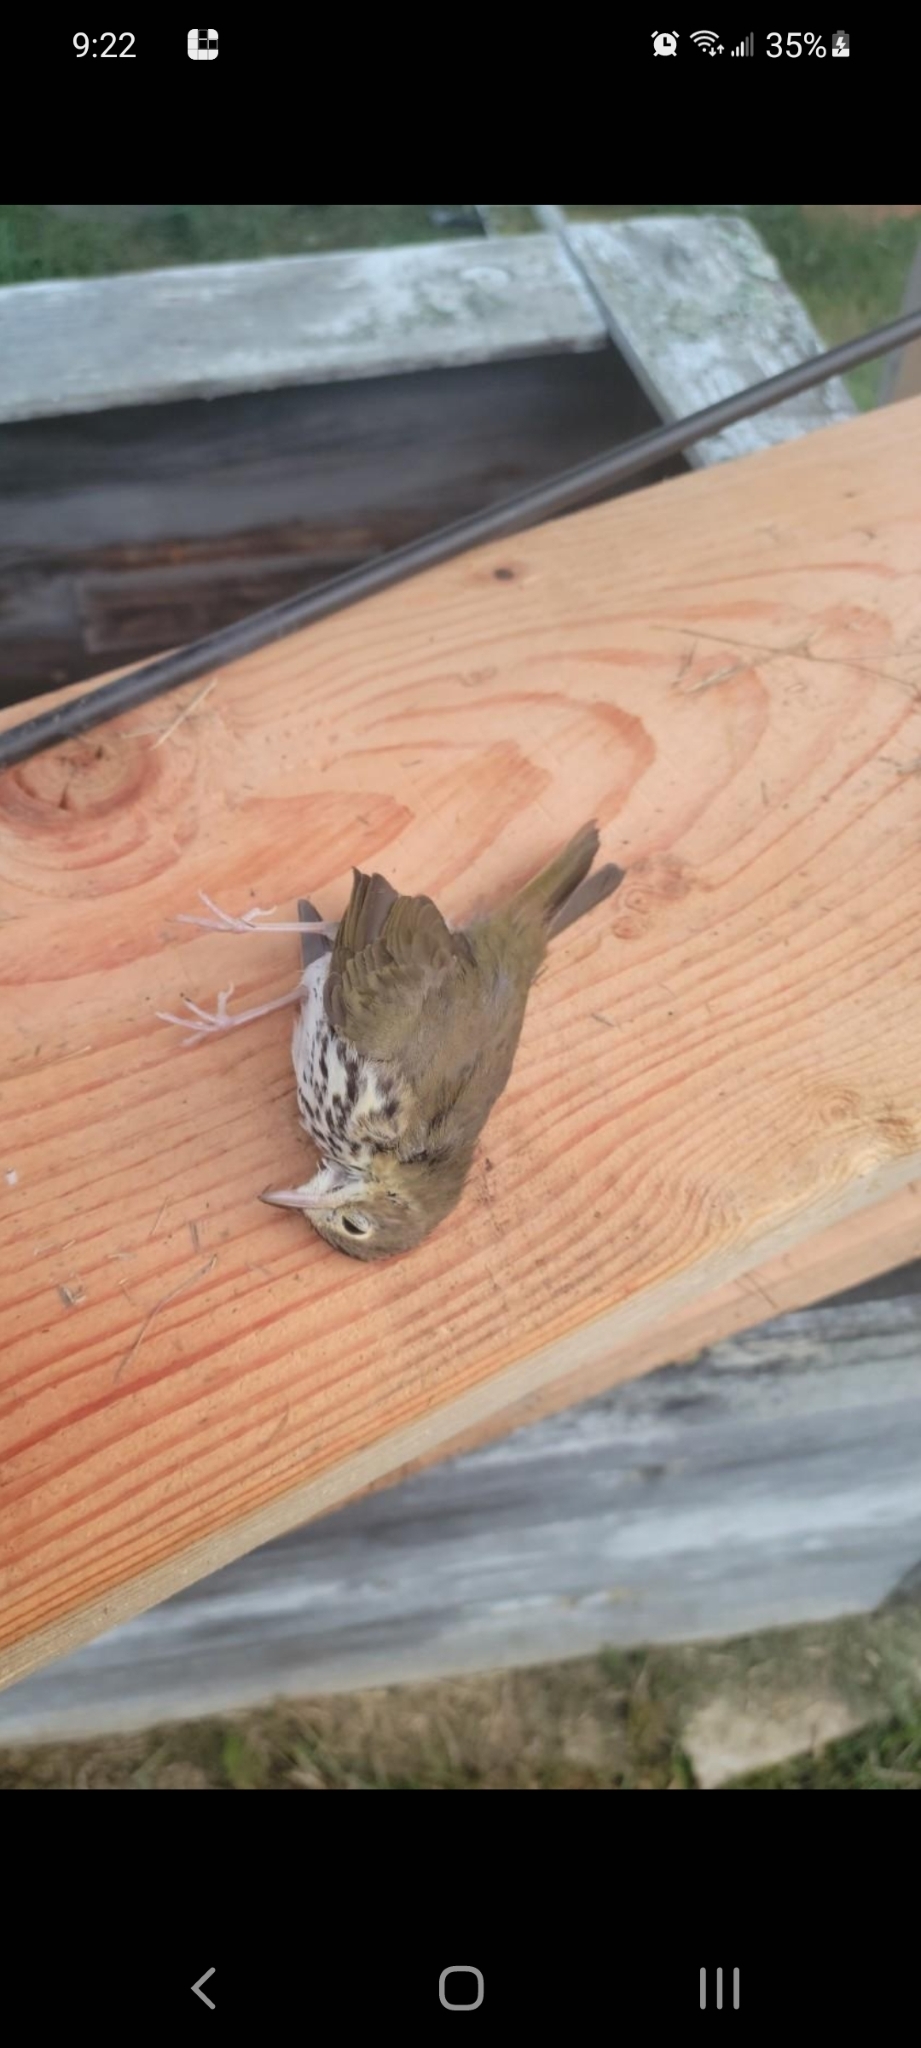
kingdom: Animalia
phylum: Chordata
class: Aves
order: Passeriformes
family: Parulidae
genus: Seiurus
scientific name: Seiurus aurocapilla
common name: Ovenbird
